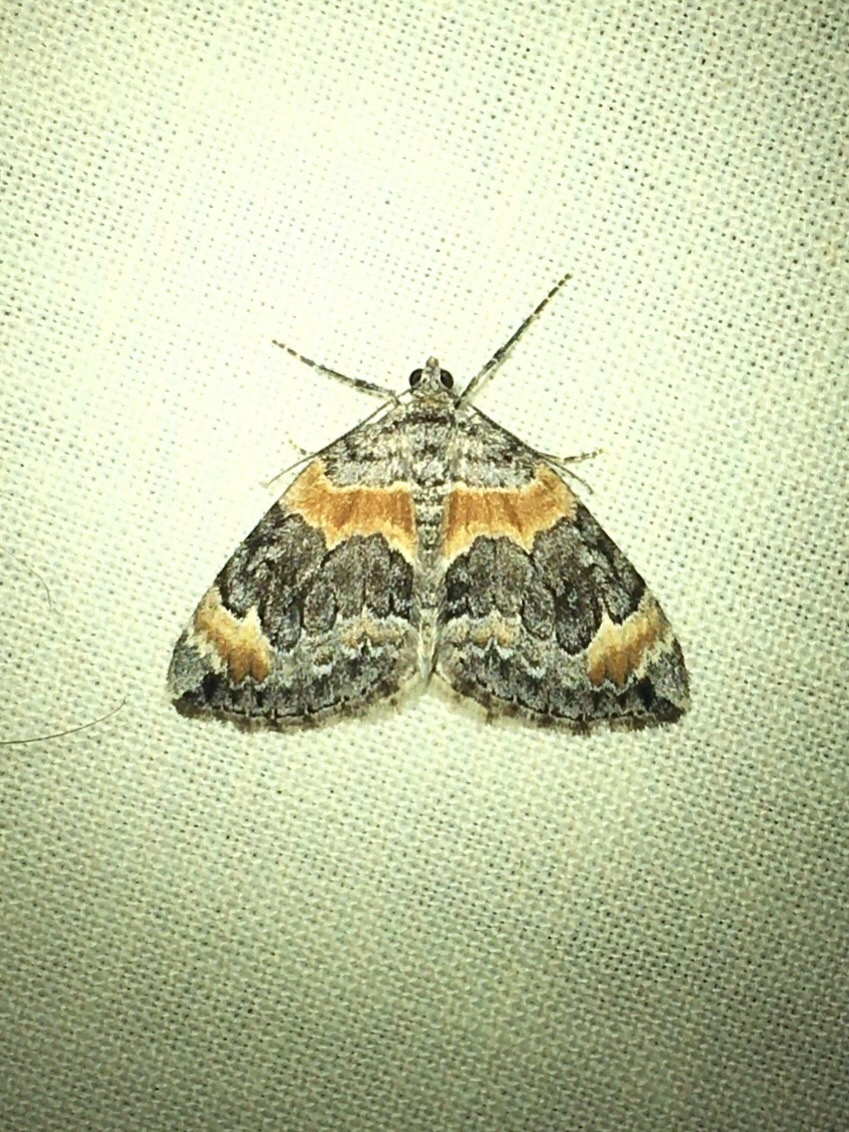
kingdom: Animalia
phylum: Arthropoda
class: Insecta
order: Lepidoptera
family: Geometridae
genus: Dysstroma
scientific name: Dysstroma hersiliata
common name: Orange-barred carpet
